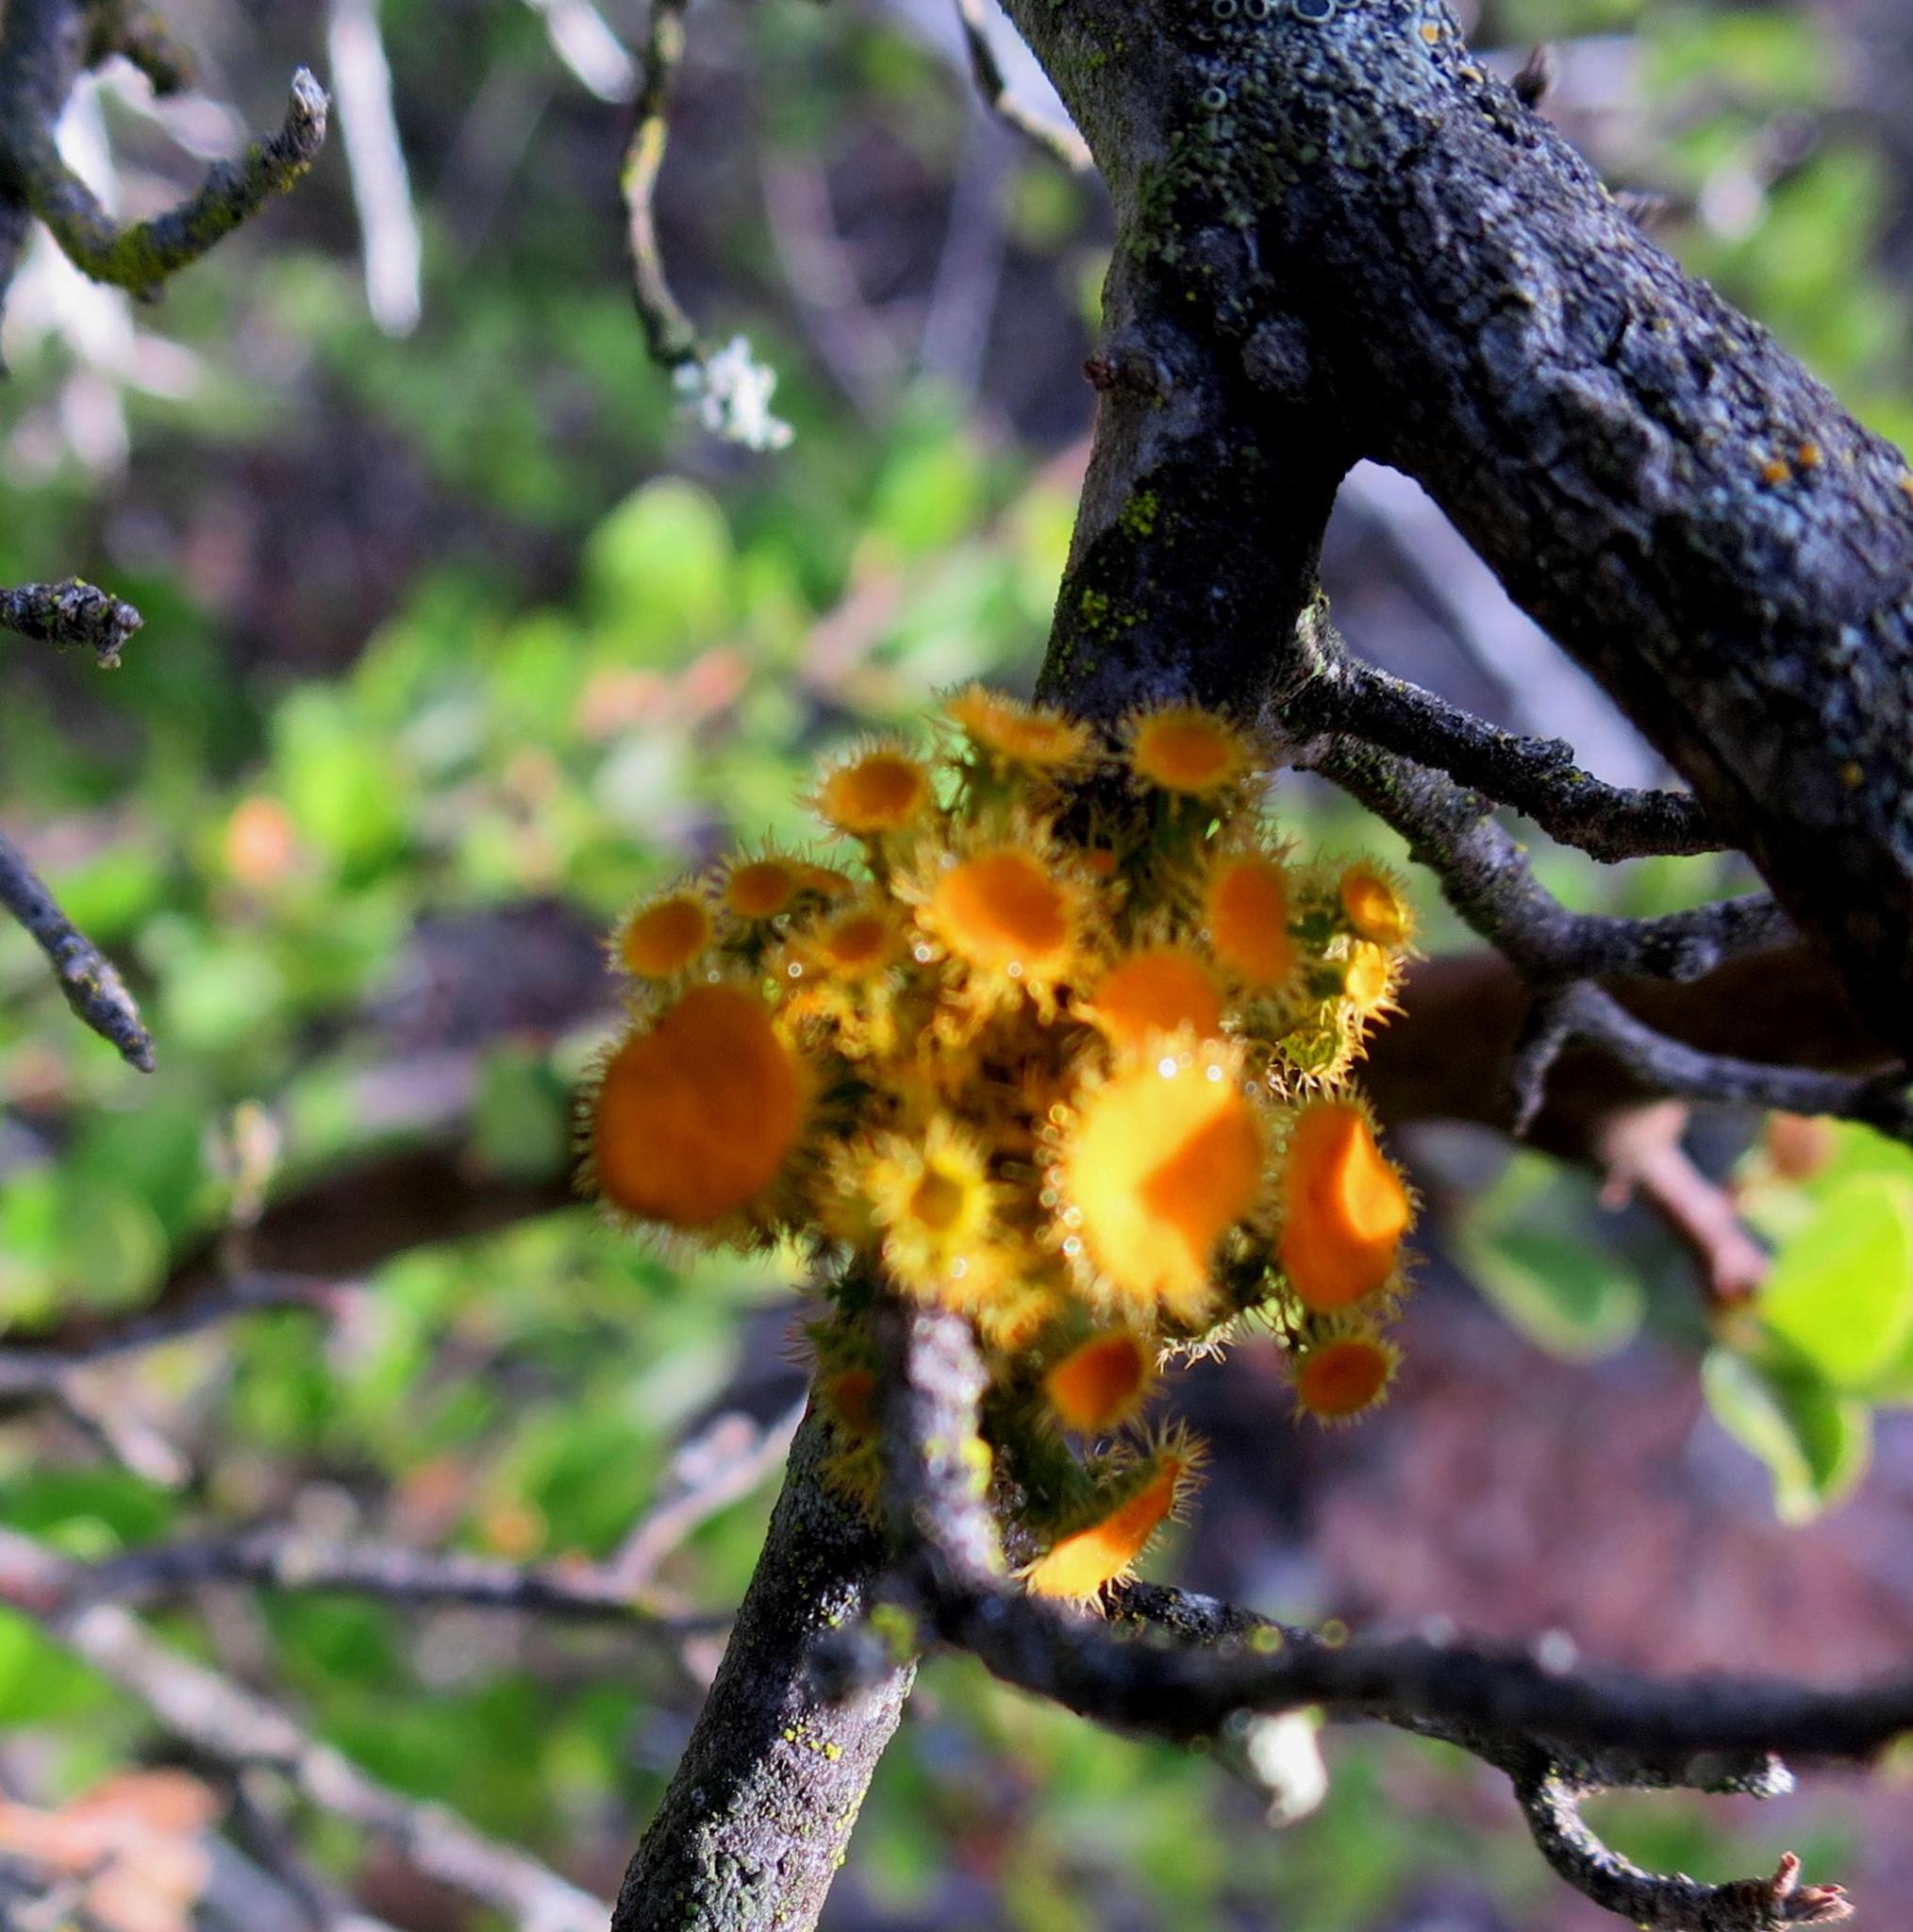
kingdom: Fungi
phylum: Ascomycota
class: Lecanoromycetes
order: Teloschistales
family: Teloschistaceae
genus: Niorma
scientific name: Niorma chrysophthalma
